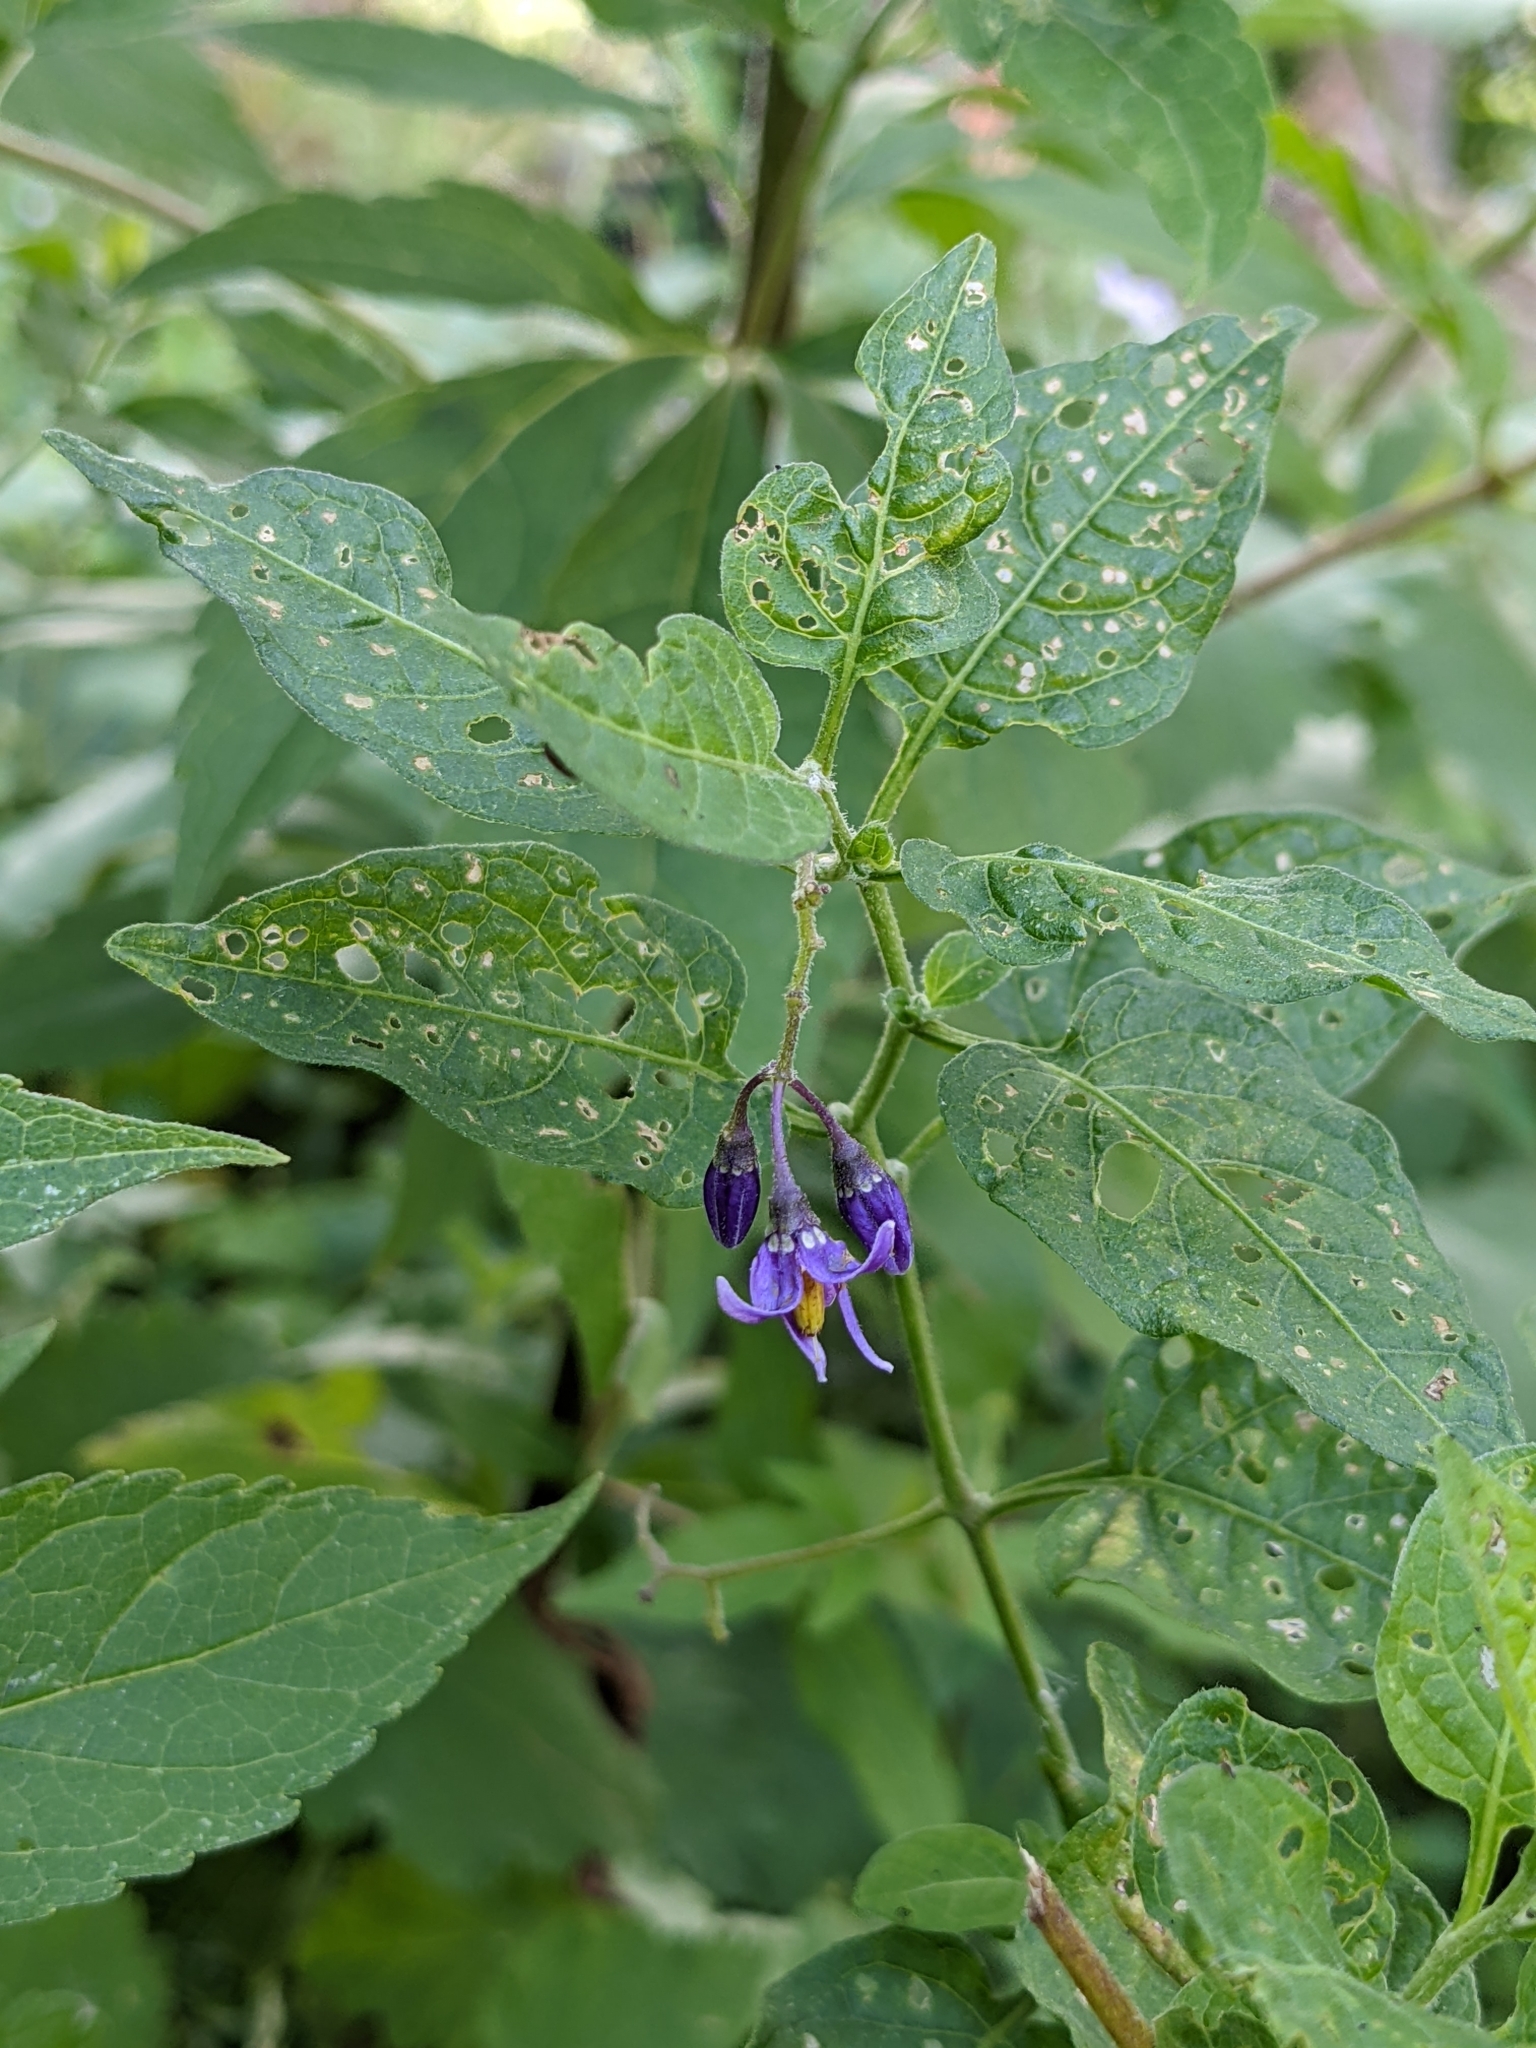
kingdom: Plantae
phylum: Tracheophyta
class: Magnoliopsida
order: Solanales
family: Solanaceae
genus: Solanum
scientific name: Solanum dulcamara
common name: Climbing nightshade
